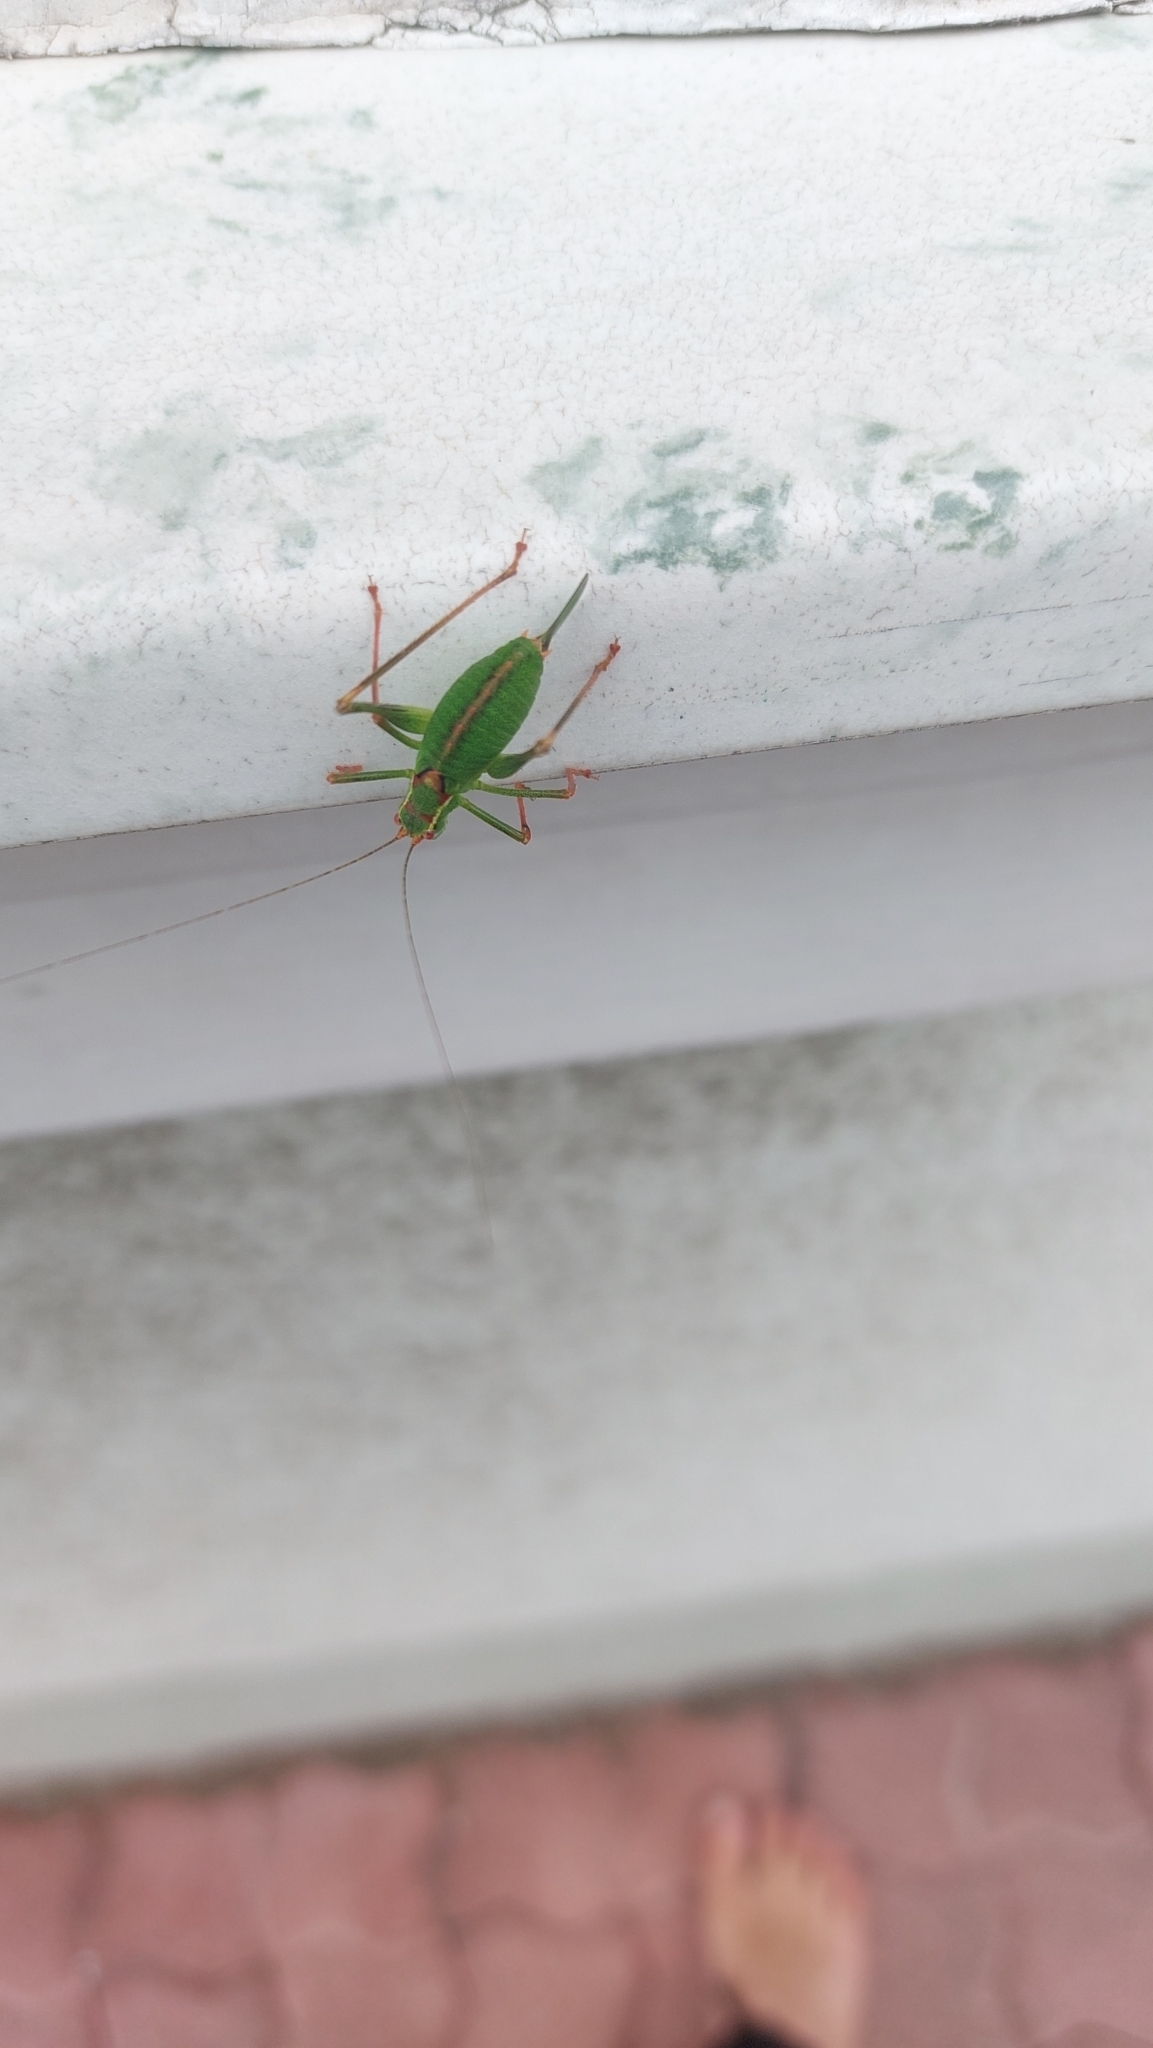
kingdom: Animalia
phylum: Arthropoda
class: Insecta
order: Orthoptera
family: Tettigoniidae
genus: Leptophyes
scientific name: Leptophyes punctatissima
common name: Speckled bush-cricket
